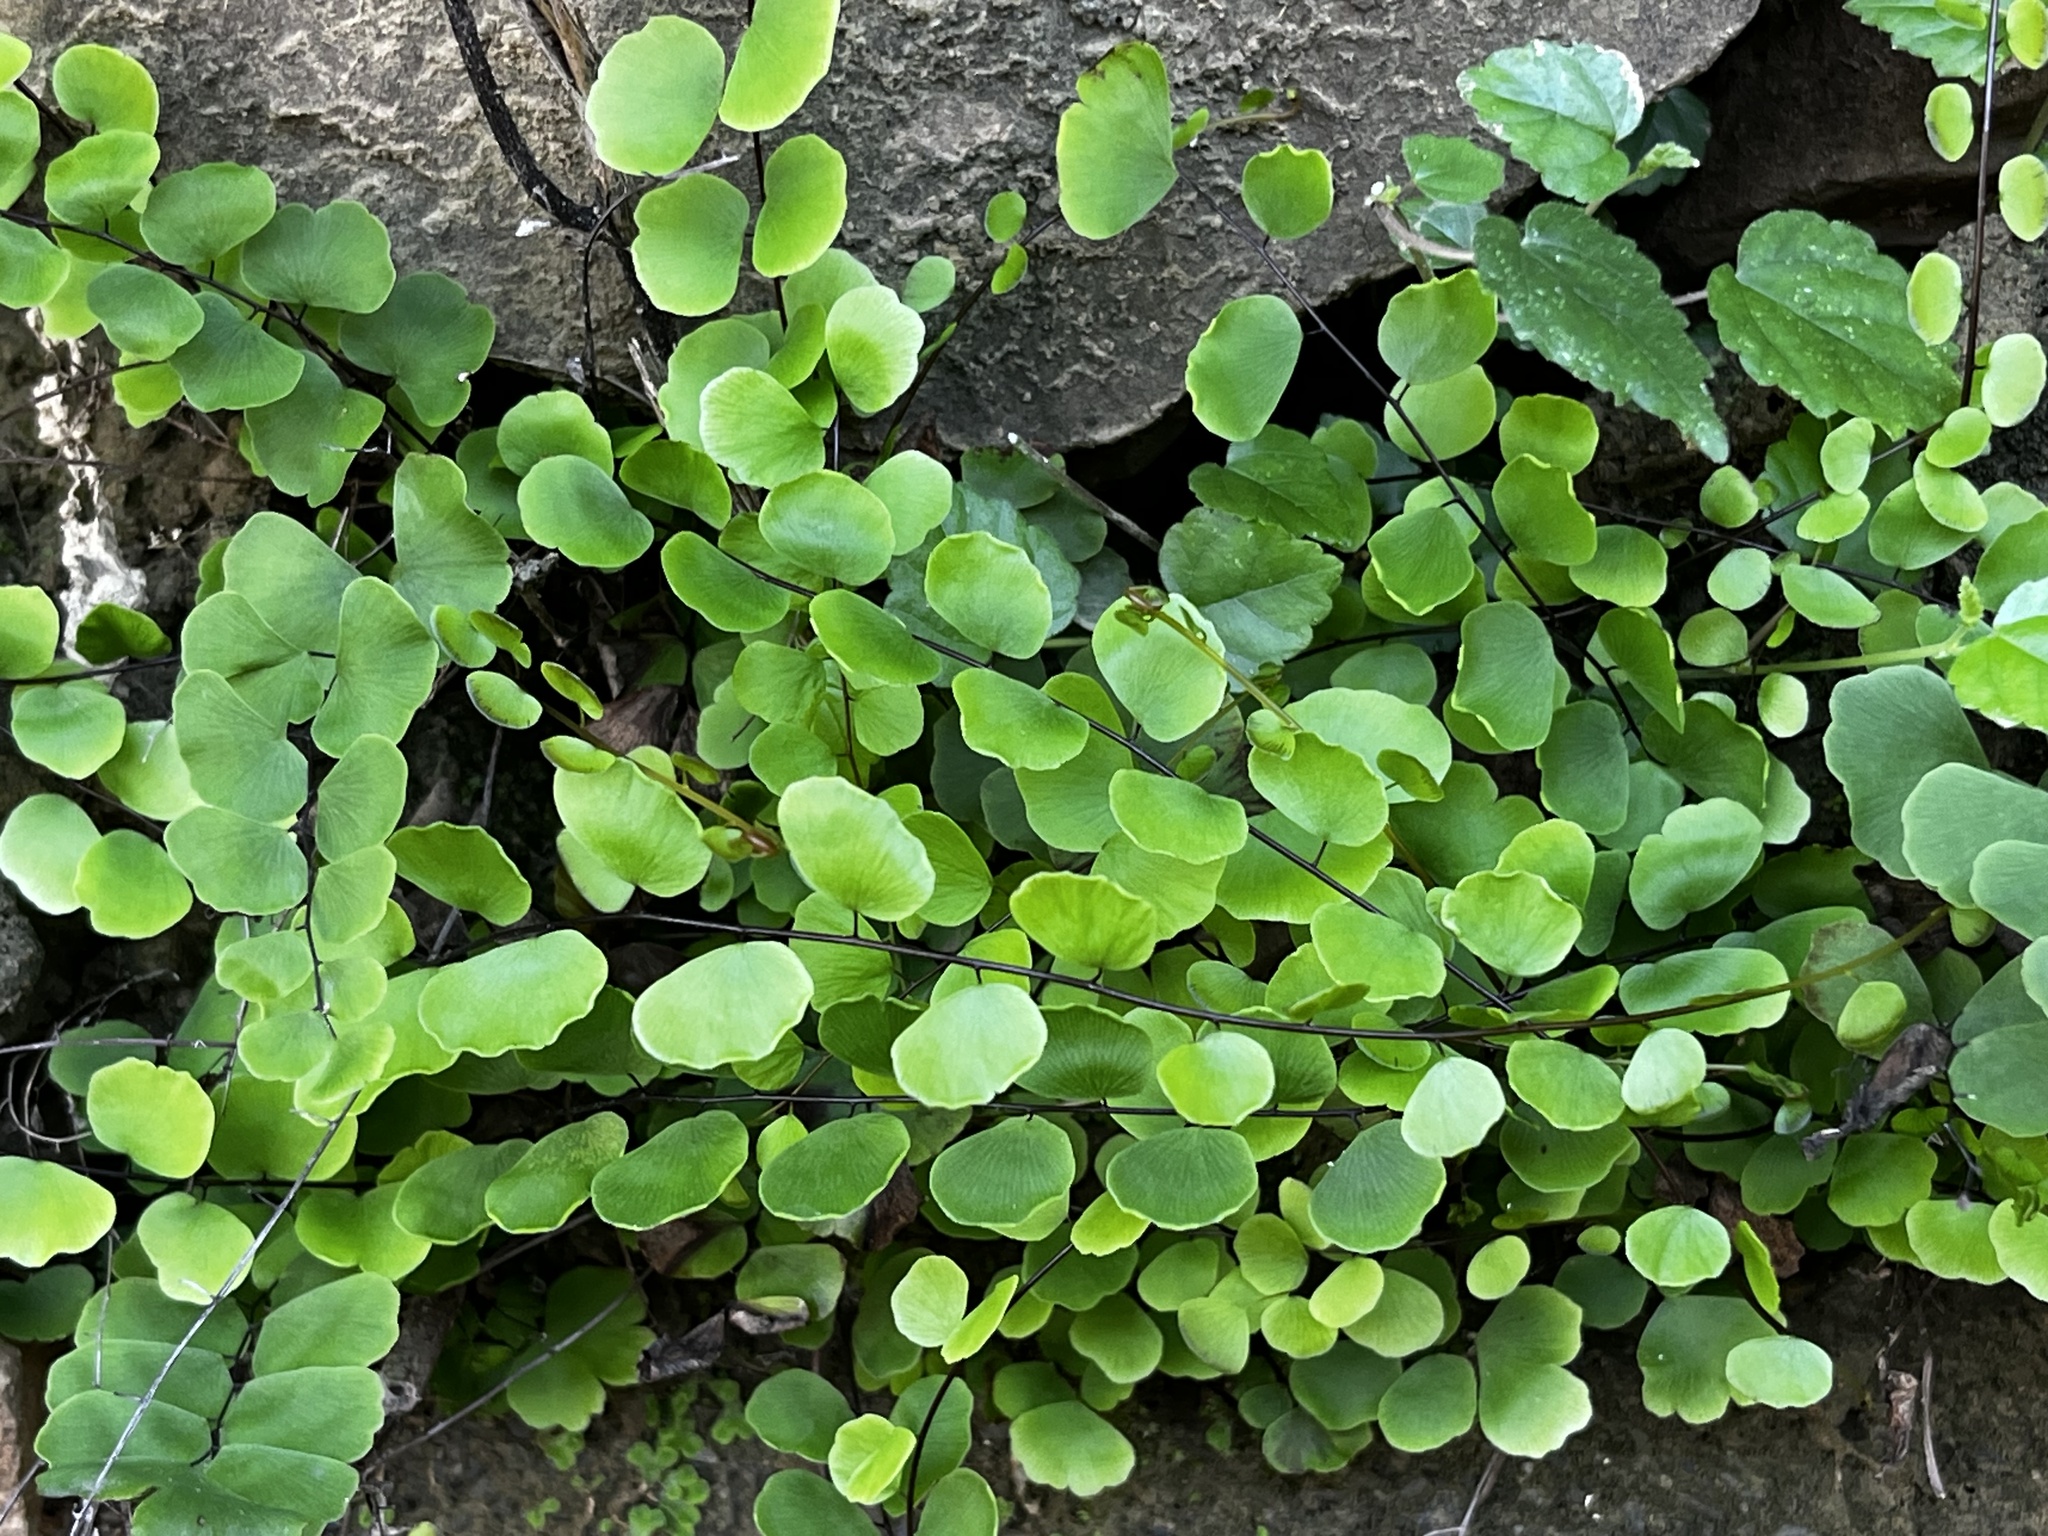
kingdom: Plantae
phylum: Tracheophyta
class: Polypodiopsida
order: Polypodiales
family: Pteridaceae
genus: Adiantum
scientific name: Adiantum philippense
